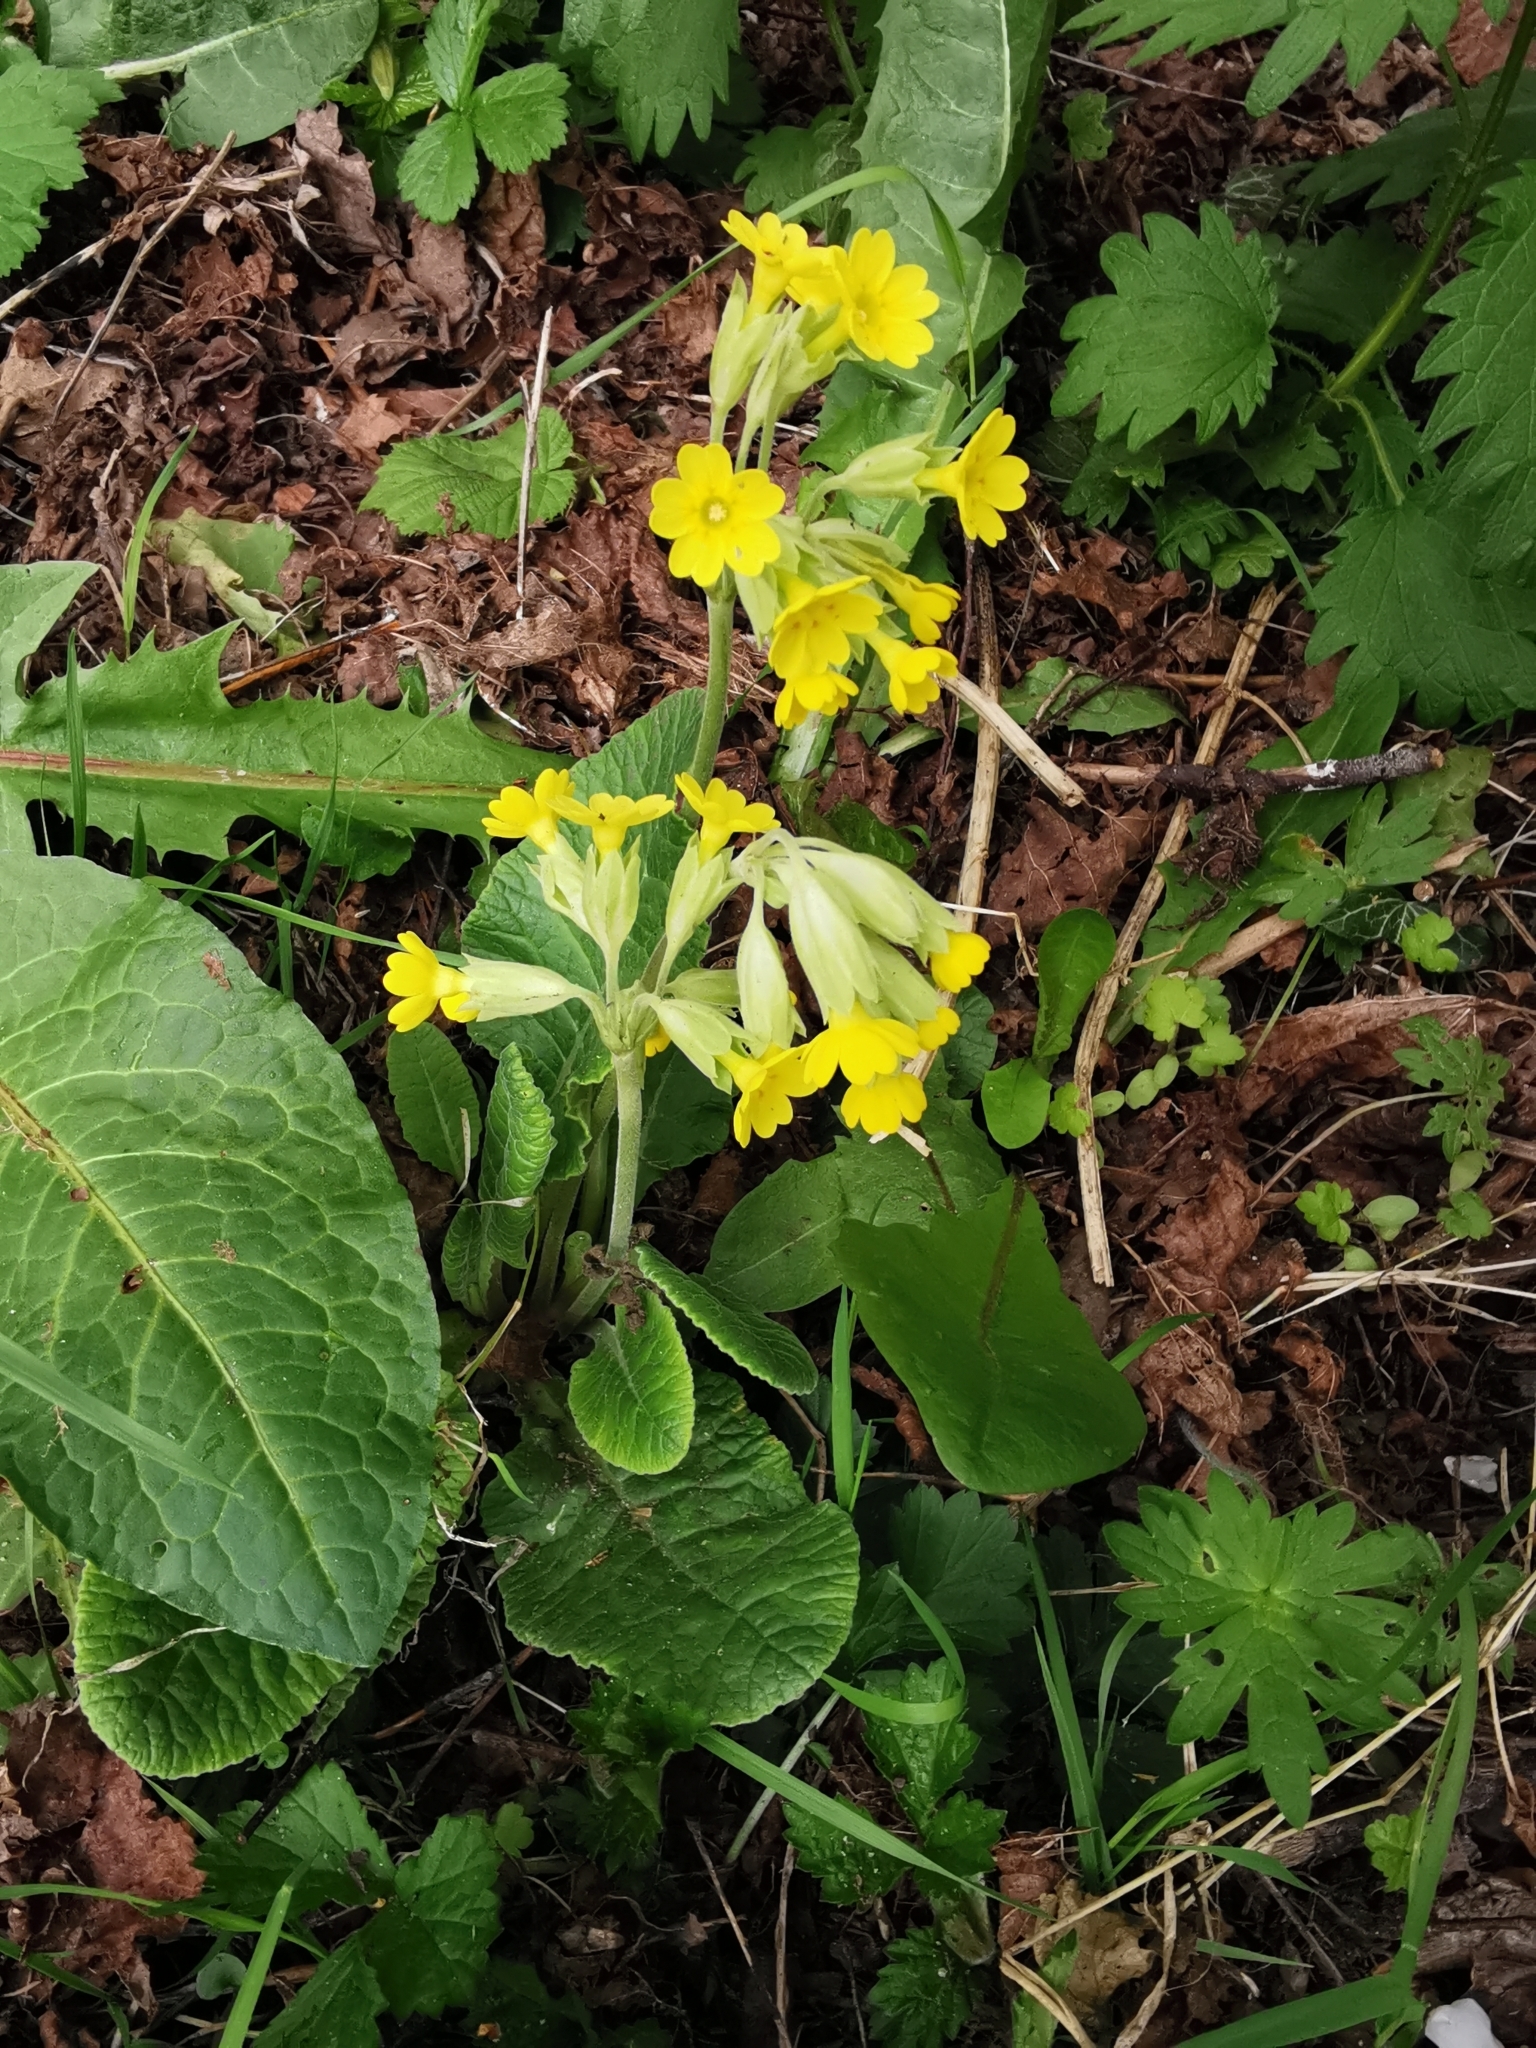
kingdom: Plantae
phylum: Tracheophyta
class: Magnoliopsida
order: Ericales
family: Primulaceae
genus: Primula
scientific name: Primula veris
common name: Cowslip
